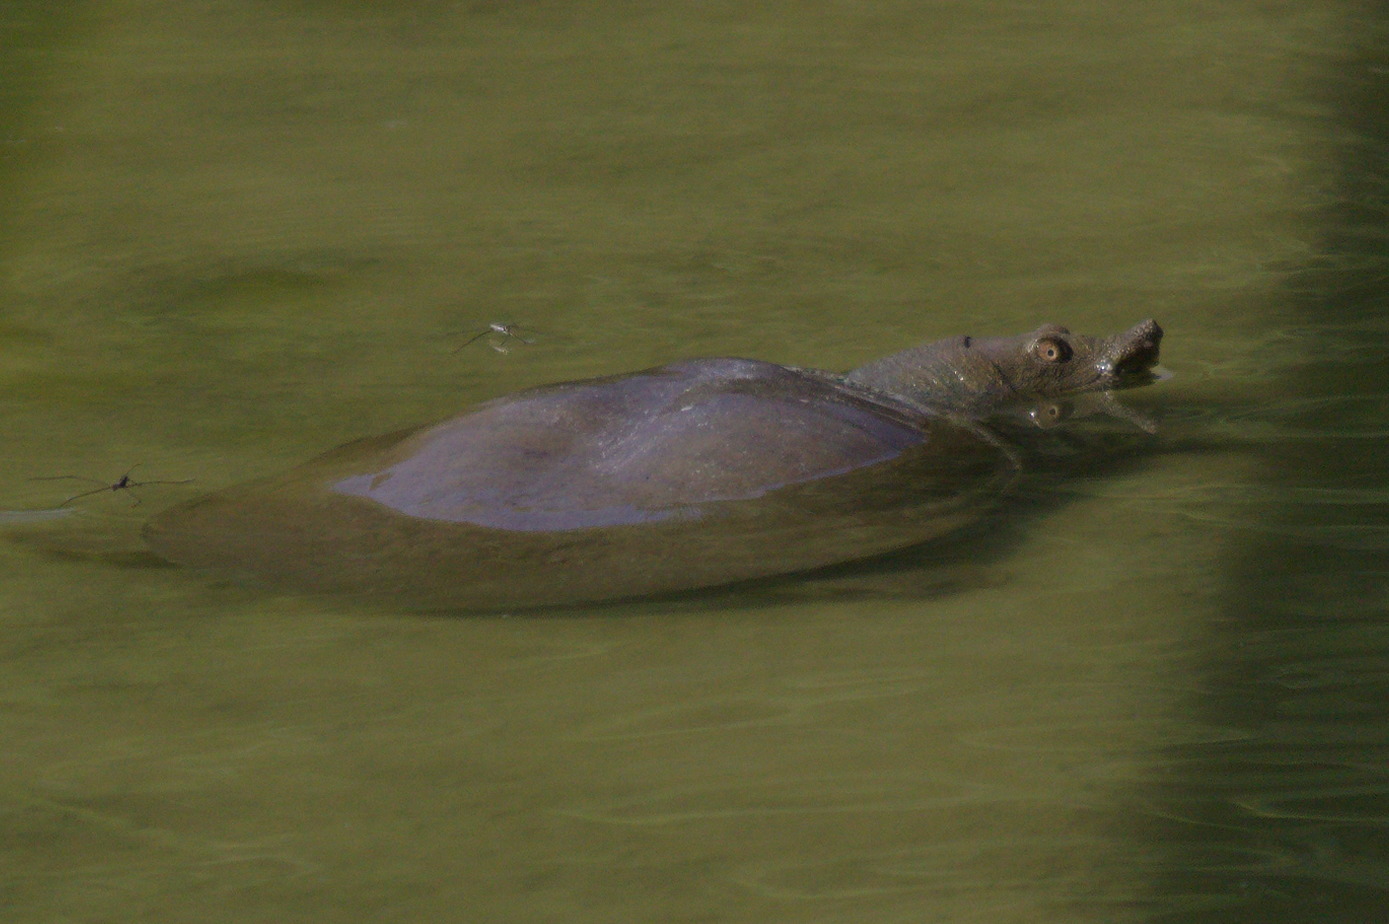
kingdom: Animalia
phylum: Chordata
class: Testudines
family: Trionychidae
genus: Pelodiscus
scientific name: Pelodiscus sinensis
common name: Chinese softshell turtle
